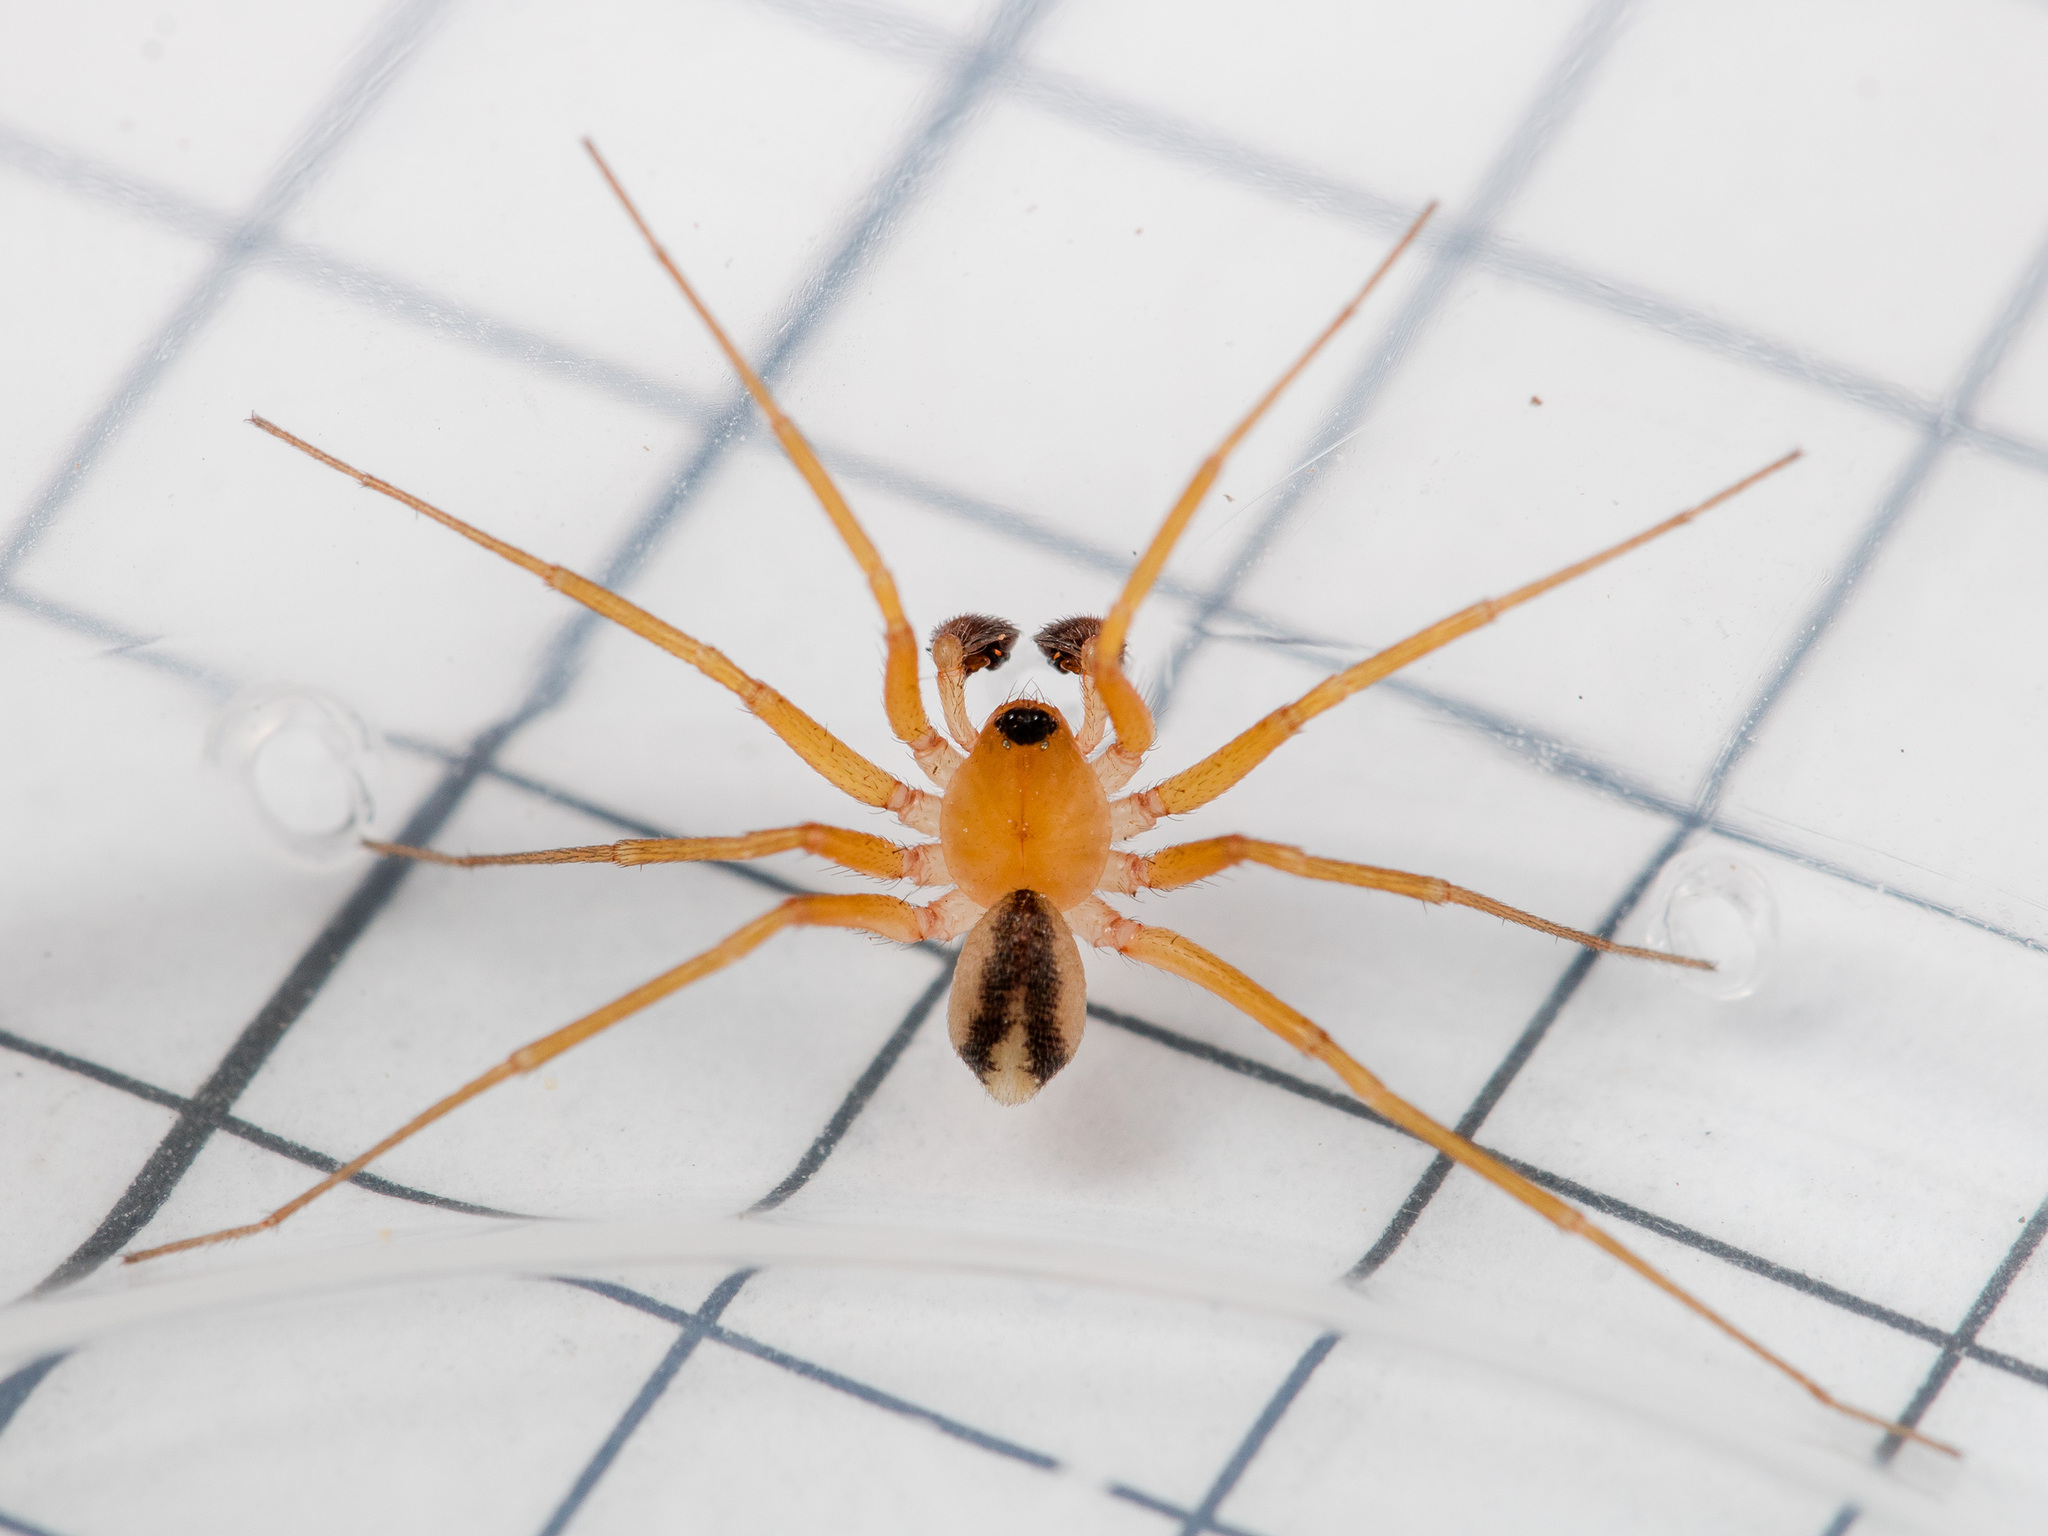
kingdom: Animalia
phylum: Arthropoda
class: Arachnida
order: Araneae
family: Zodariidae
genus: Zodariellum
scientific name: Zodariellum nenilini
